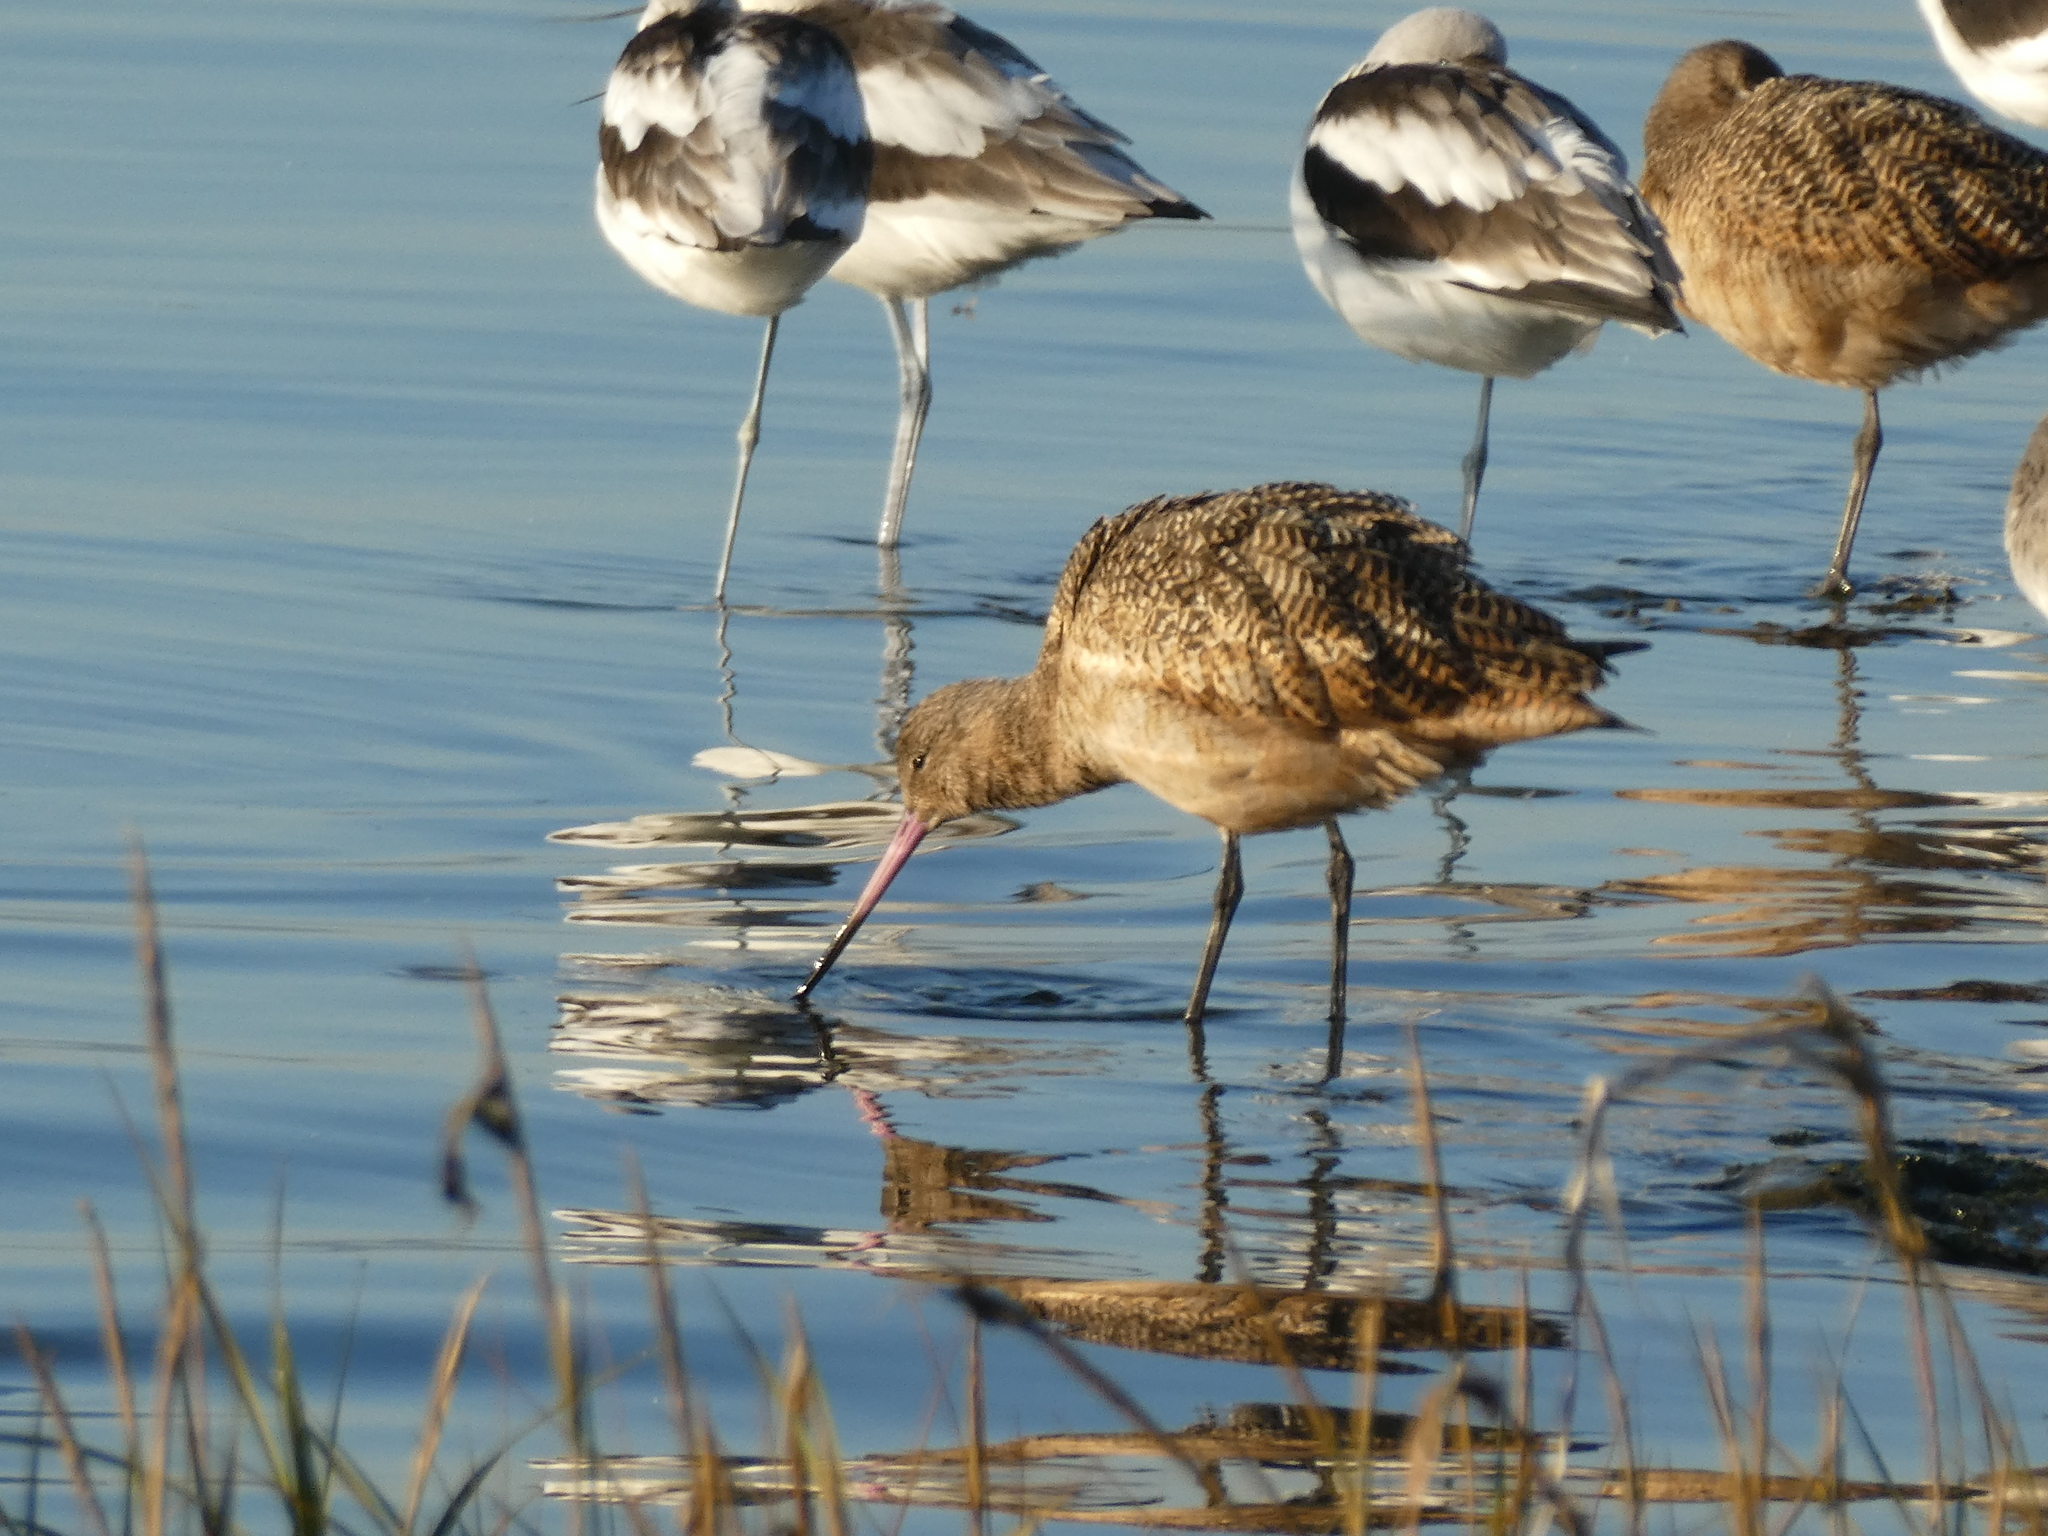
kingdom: Animalia
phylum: Chordata
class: Aves
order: Charadriiformes
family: Scolopacidae
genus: Limosa
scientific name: Limosa fedoa
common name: Marbled godwit
